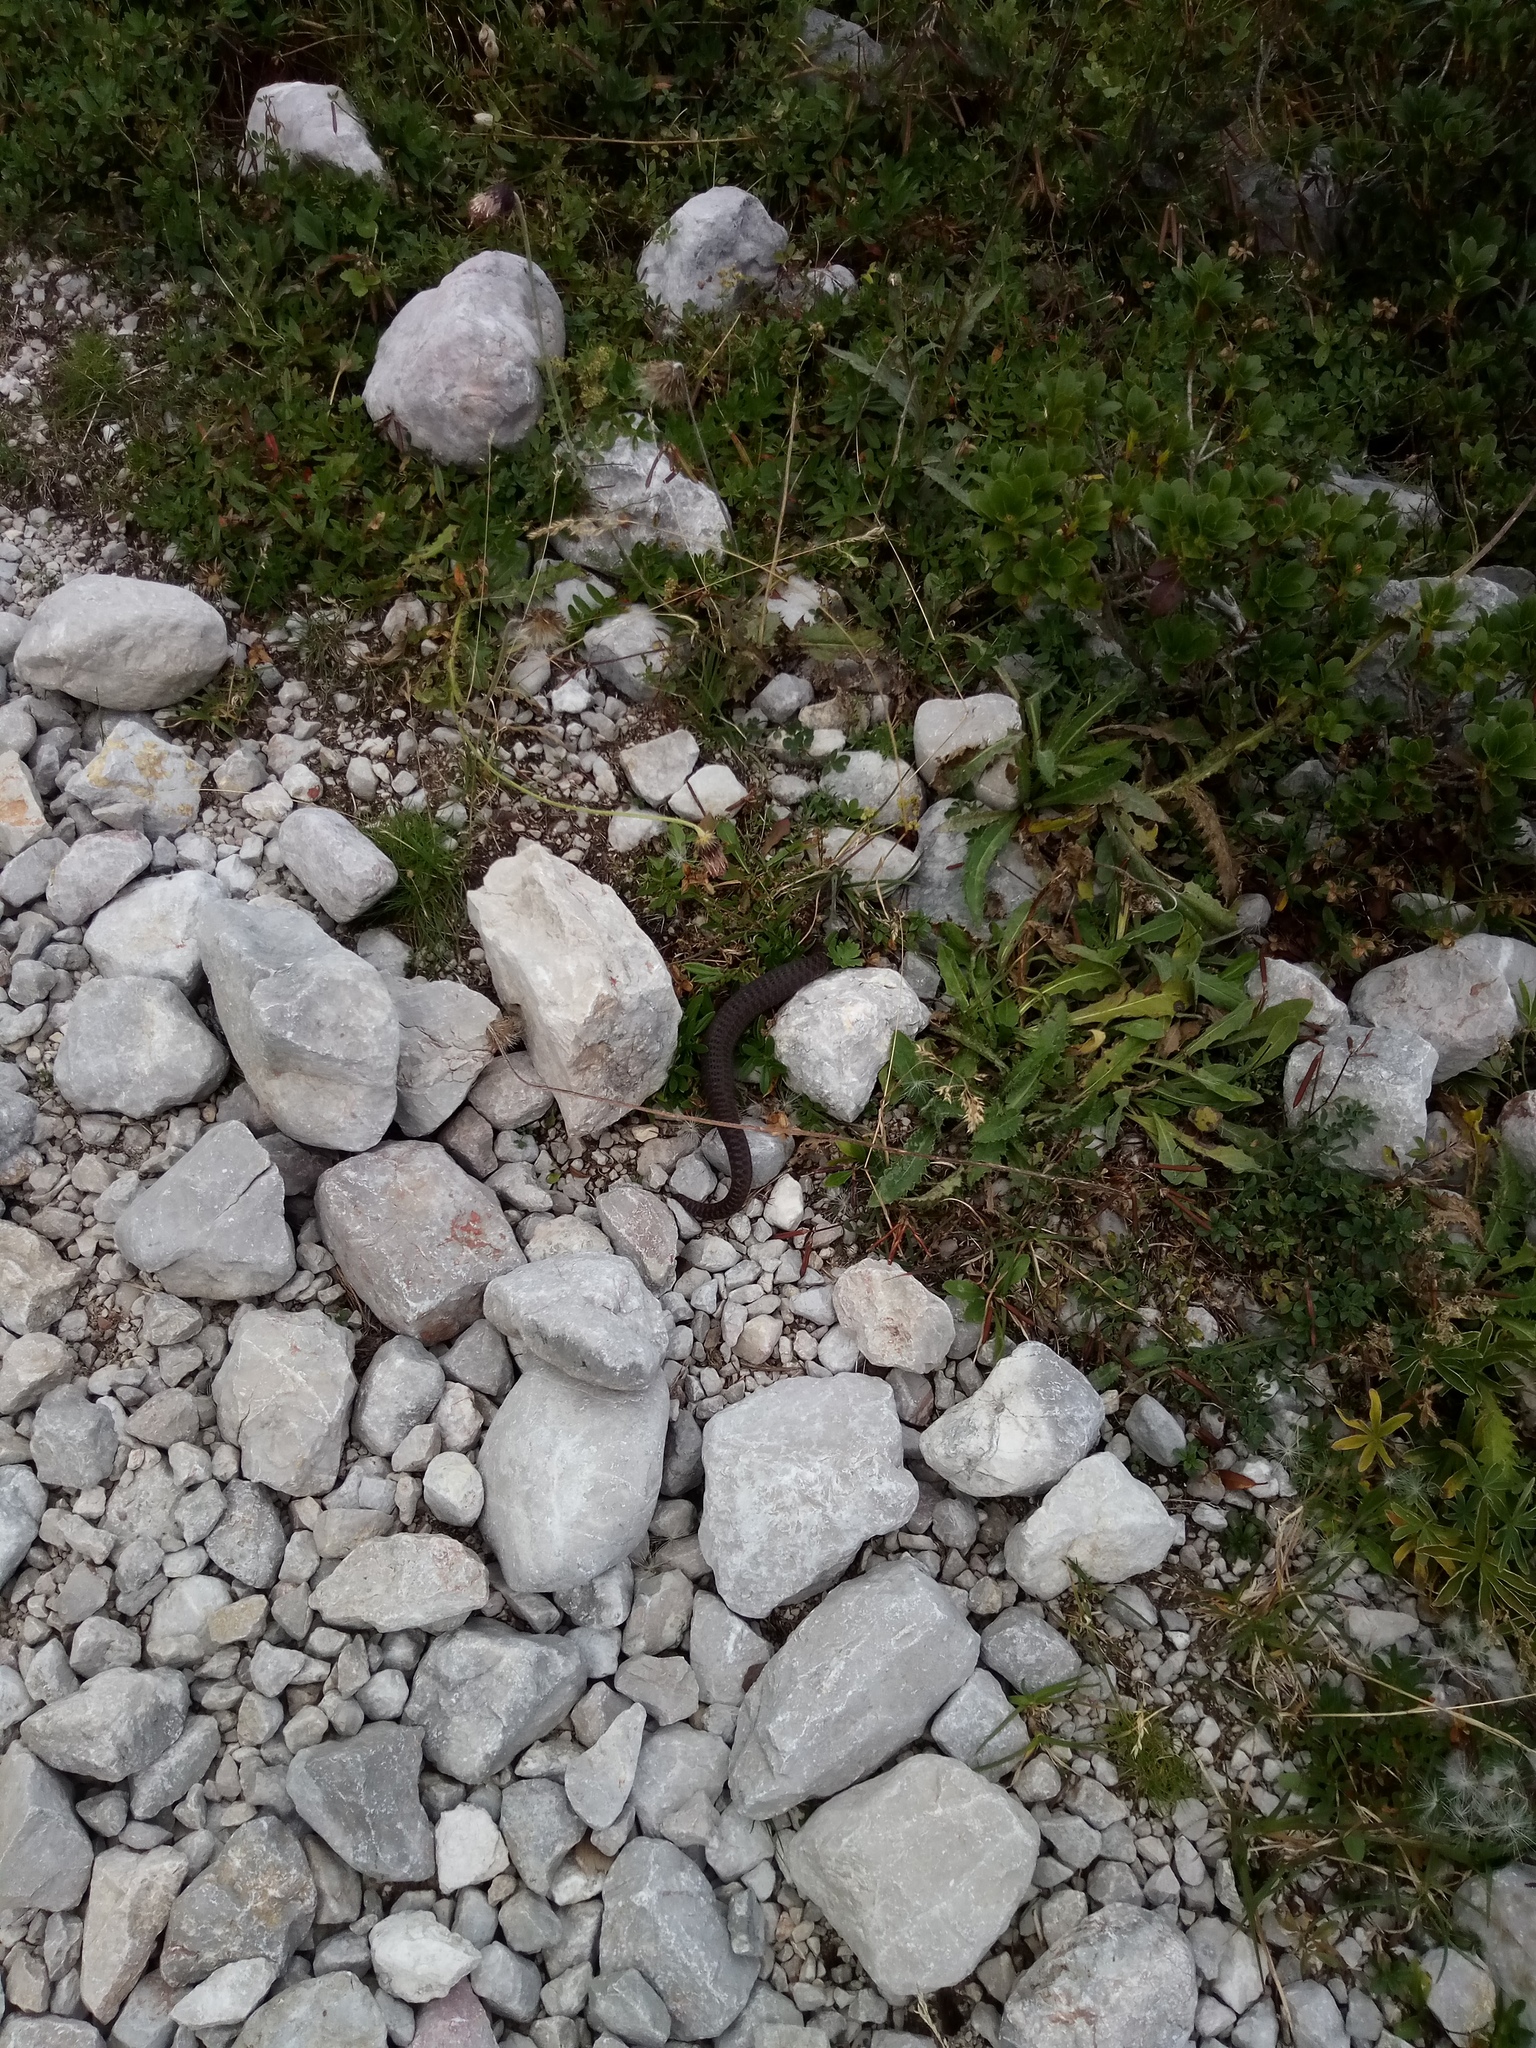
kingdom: Animalia
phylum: Chordata
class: Squamata
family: Viperidae
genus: Vipera
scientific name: Vipera berus
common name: Adder
